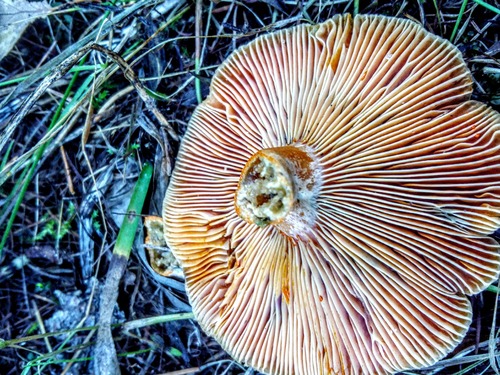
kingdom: Fungi
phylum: Basidiomycota
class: Agaricomycetes
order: Russulales
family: Russulaceae
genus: Lactarius
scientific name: Lactarius deliciosus
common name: Saffron milk-cap
